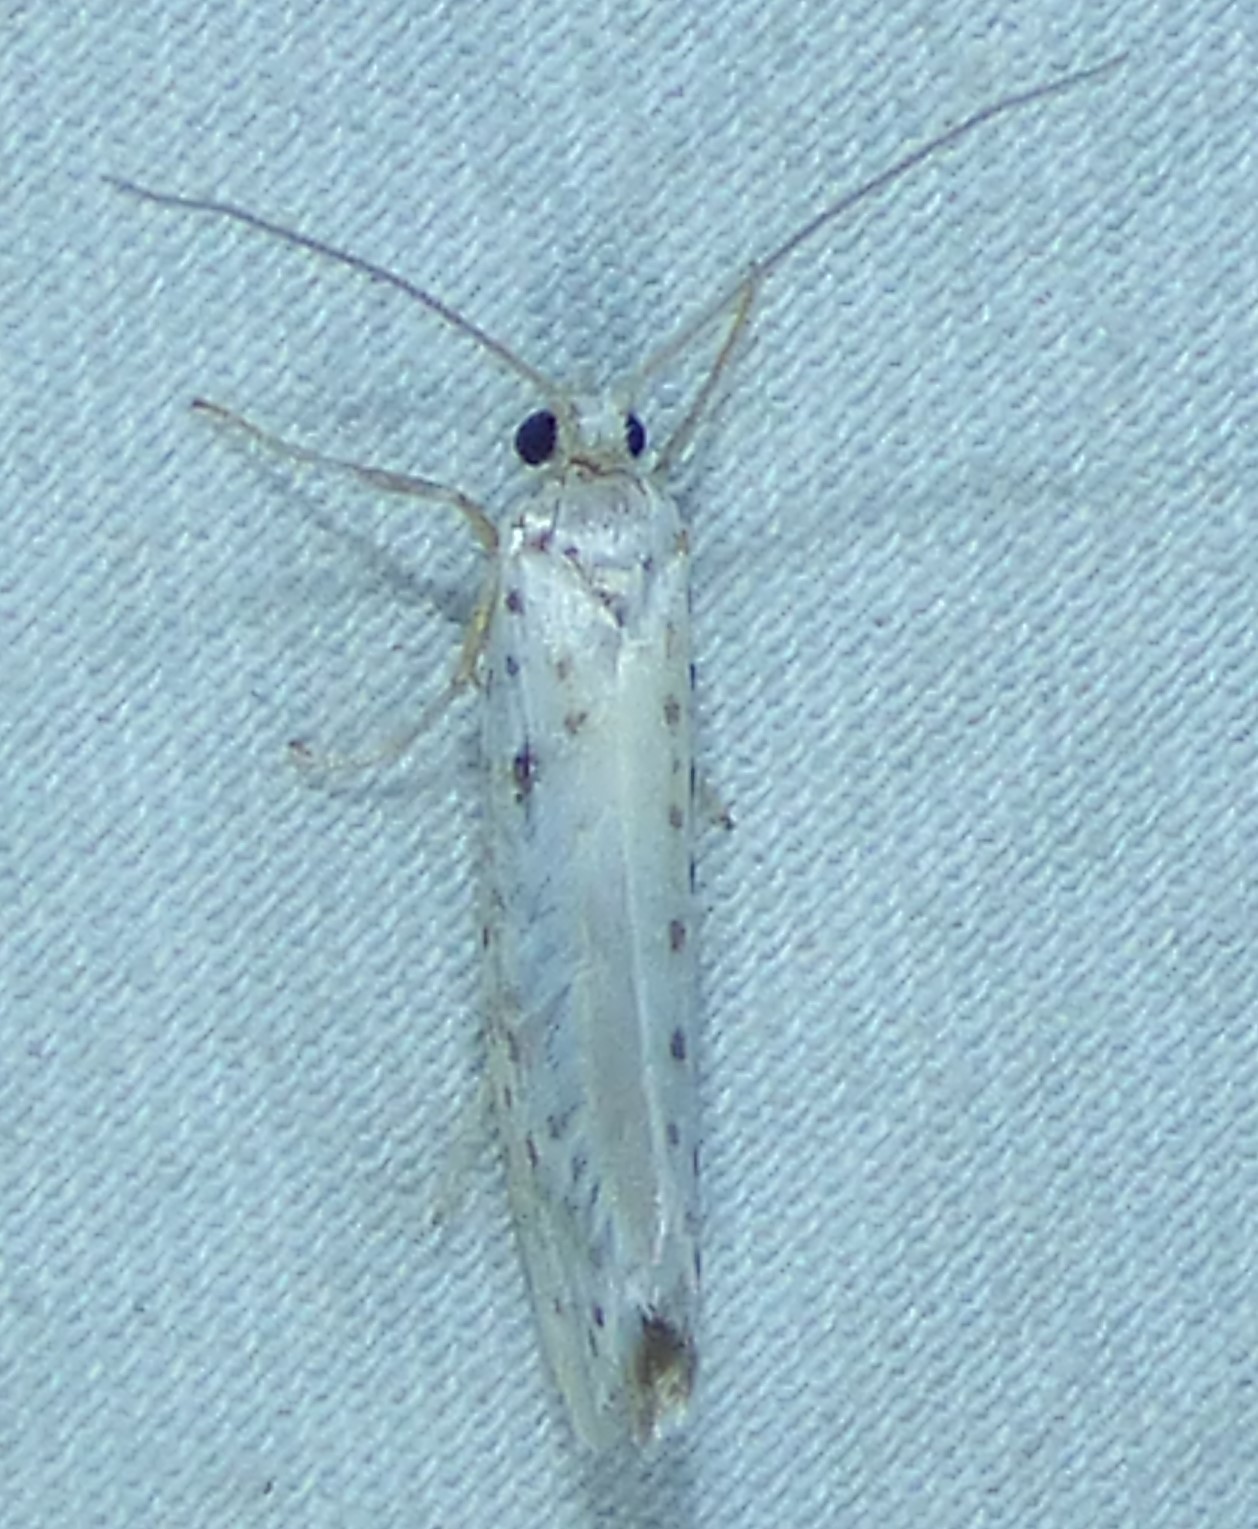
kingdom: Animalia
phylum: Arthropoda
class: Insecta
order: Lepidoptera
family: Yponomeutidae
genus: Yponomeuta
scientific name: Yponomeuta multipunctella
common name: American ermine moth
